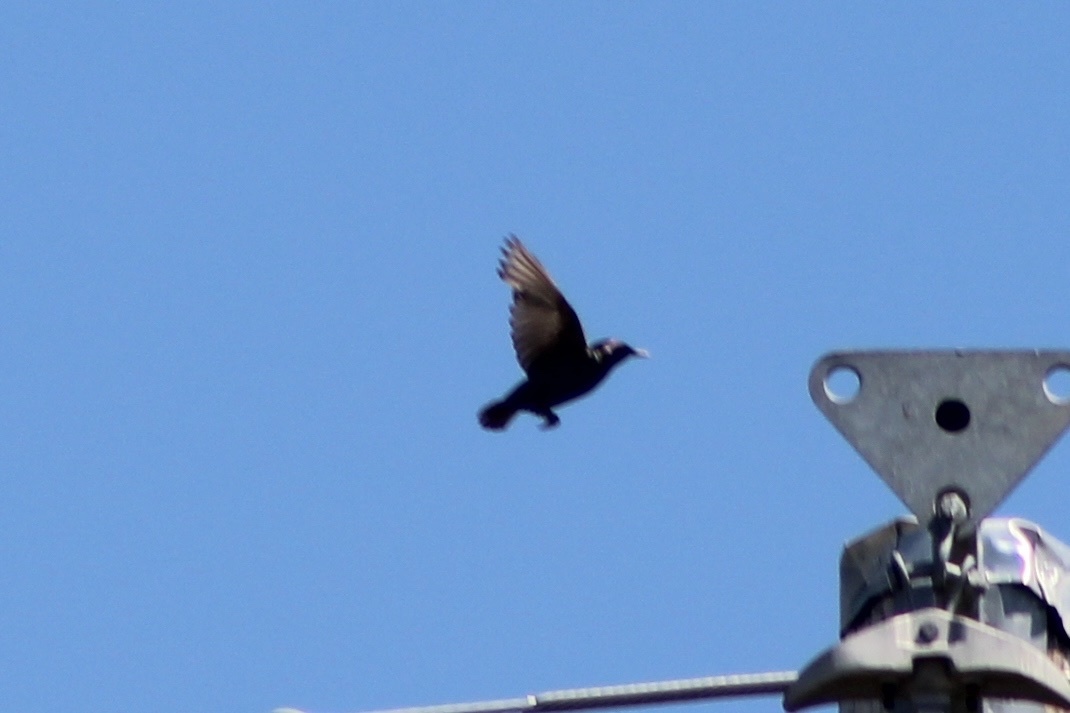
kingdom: Animalia
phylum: Chordata
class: Aves
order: Passeriformes
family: Sturnidae
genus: Sturnus
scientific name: Sturnus vulgaris
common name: Common starling
